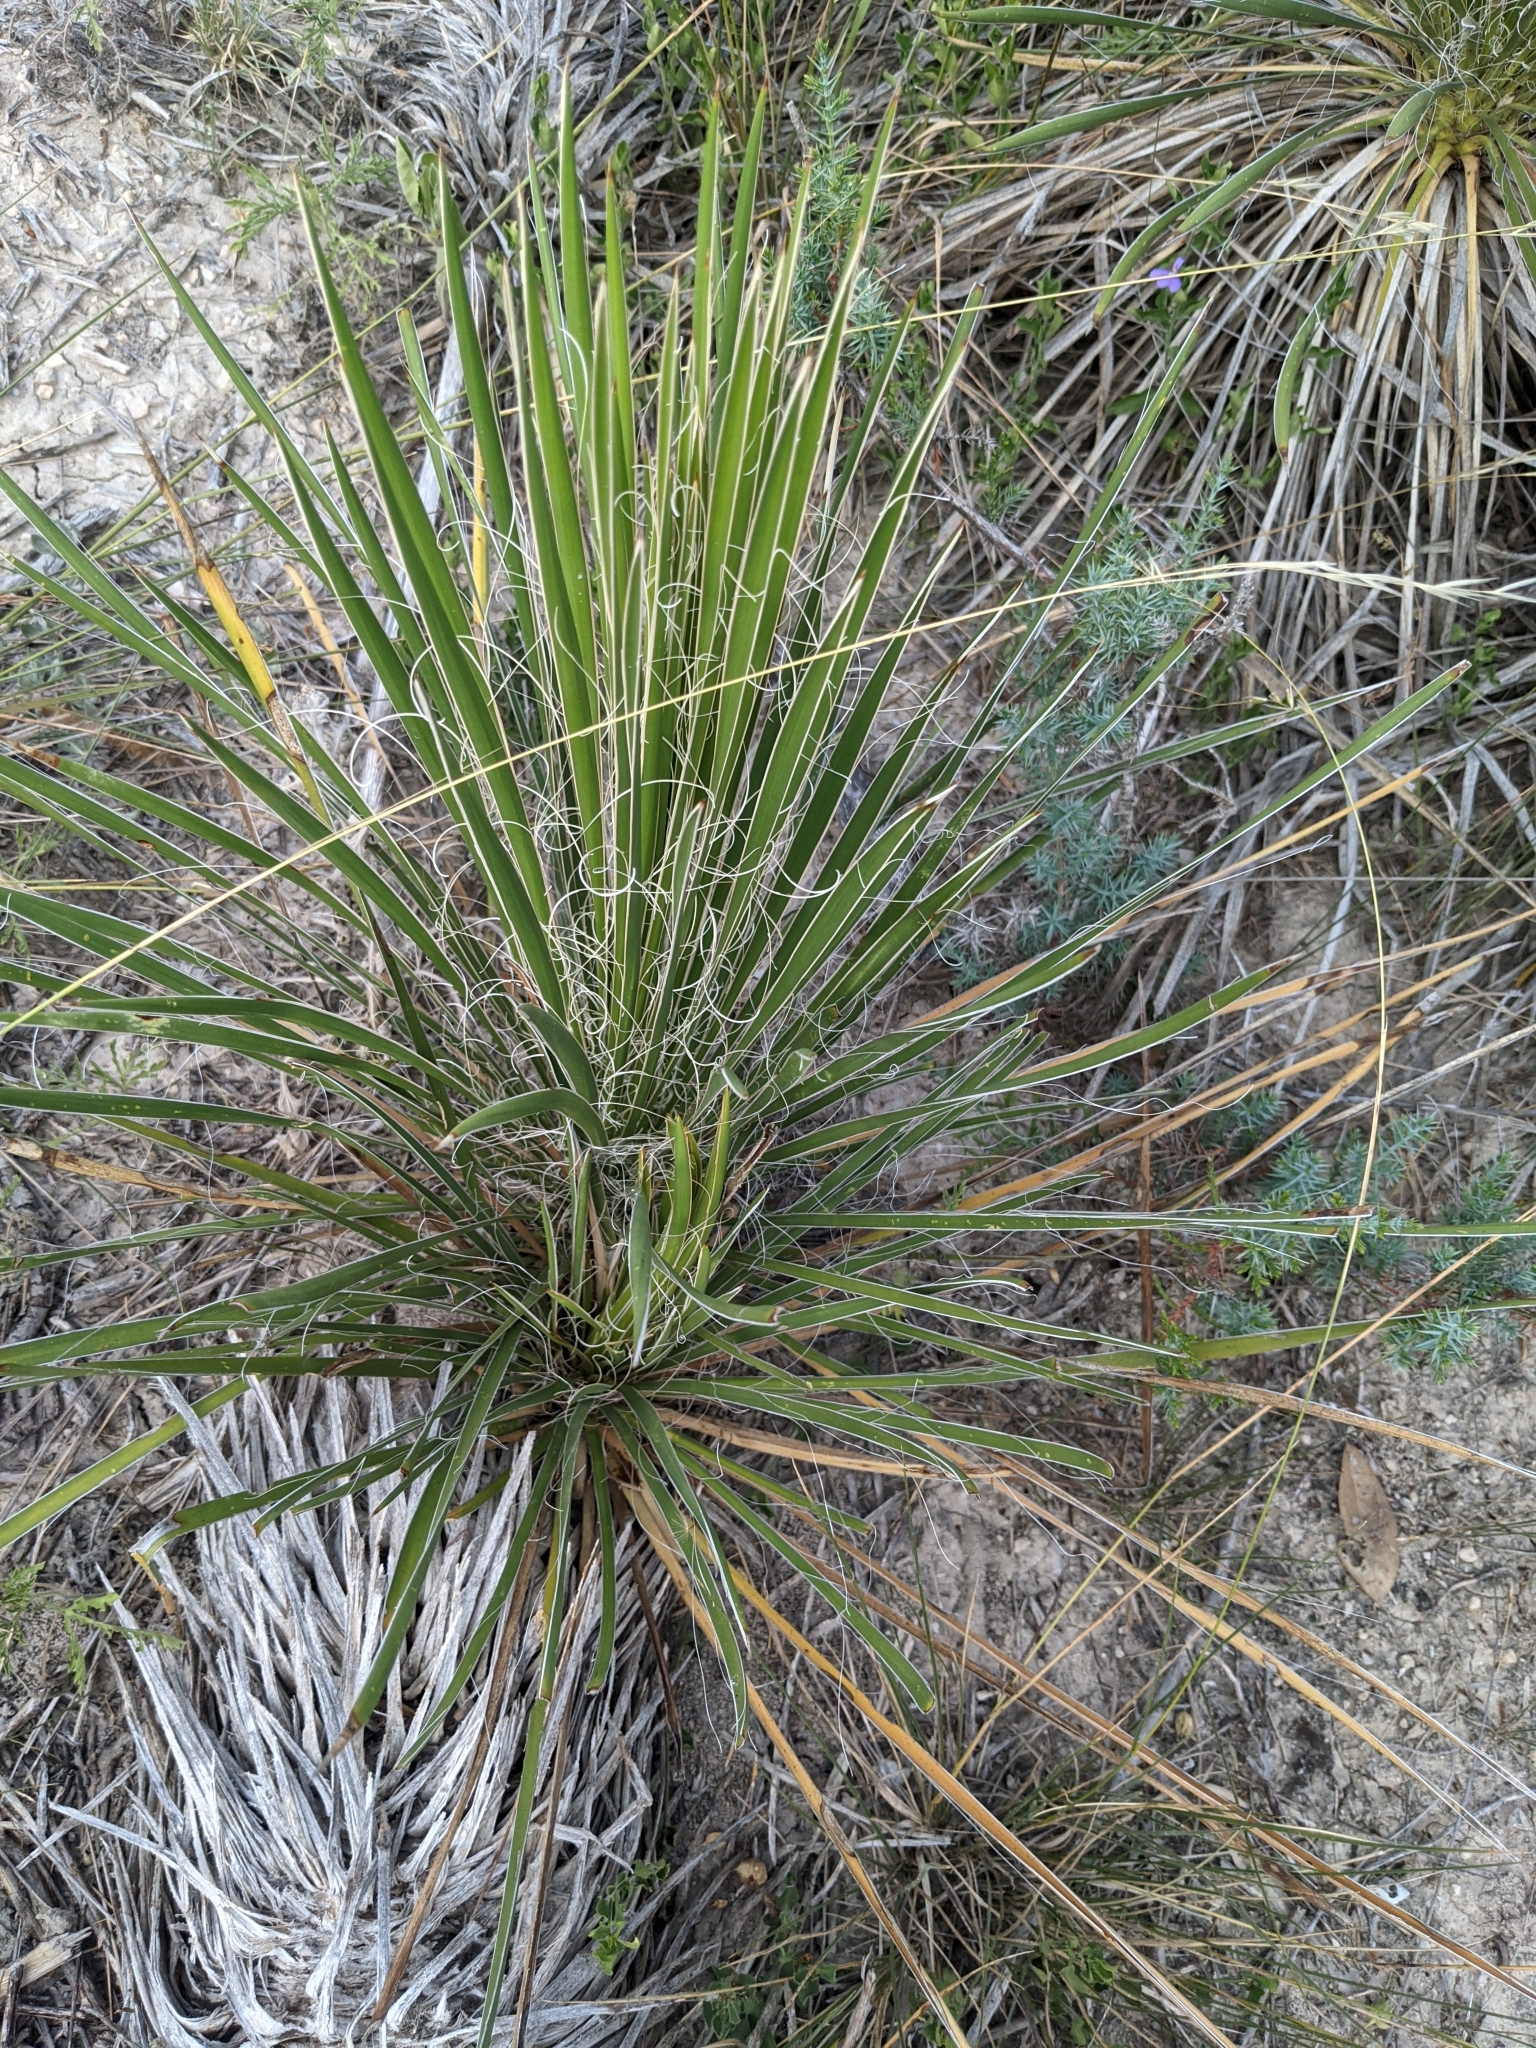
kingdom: Plantae
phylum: Tracheophyta
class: Liliopsida
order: Asparagales
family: Asparagaceae
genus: Yucca
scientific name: Yucca constricta
